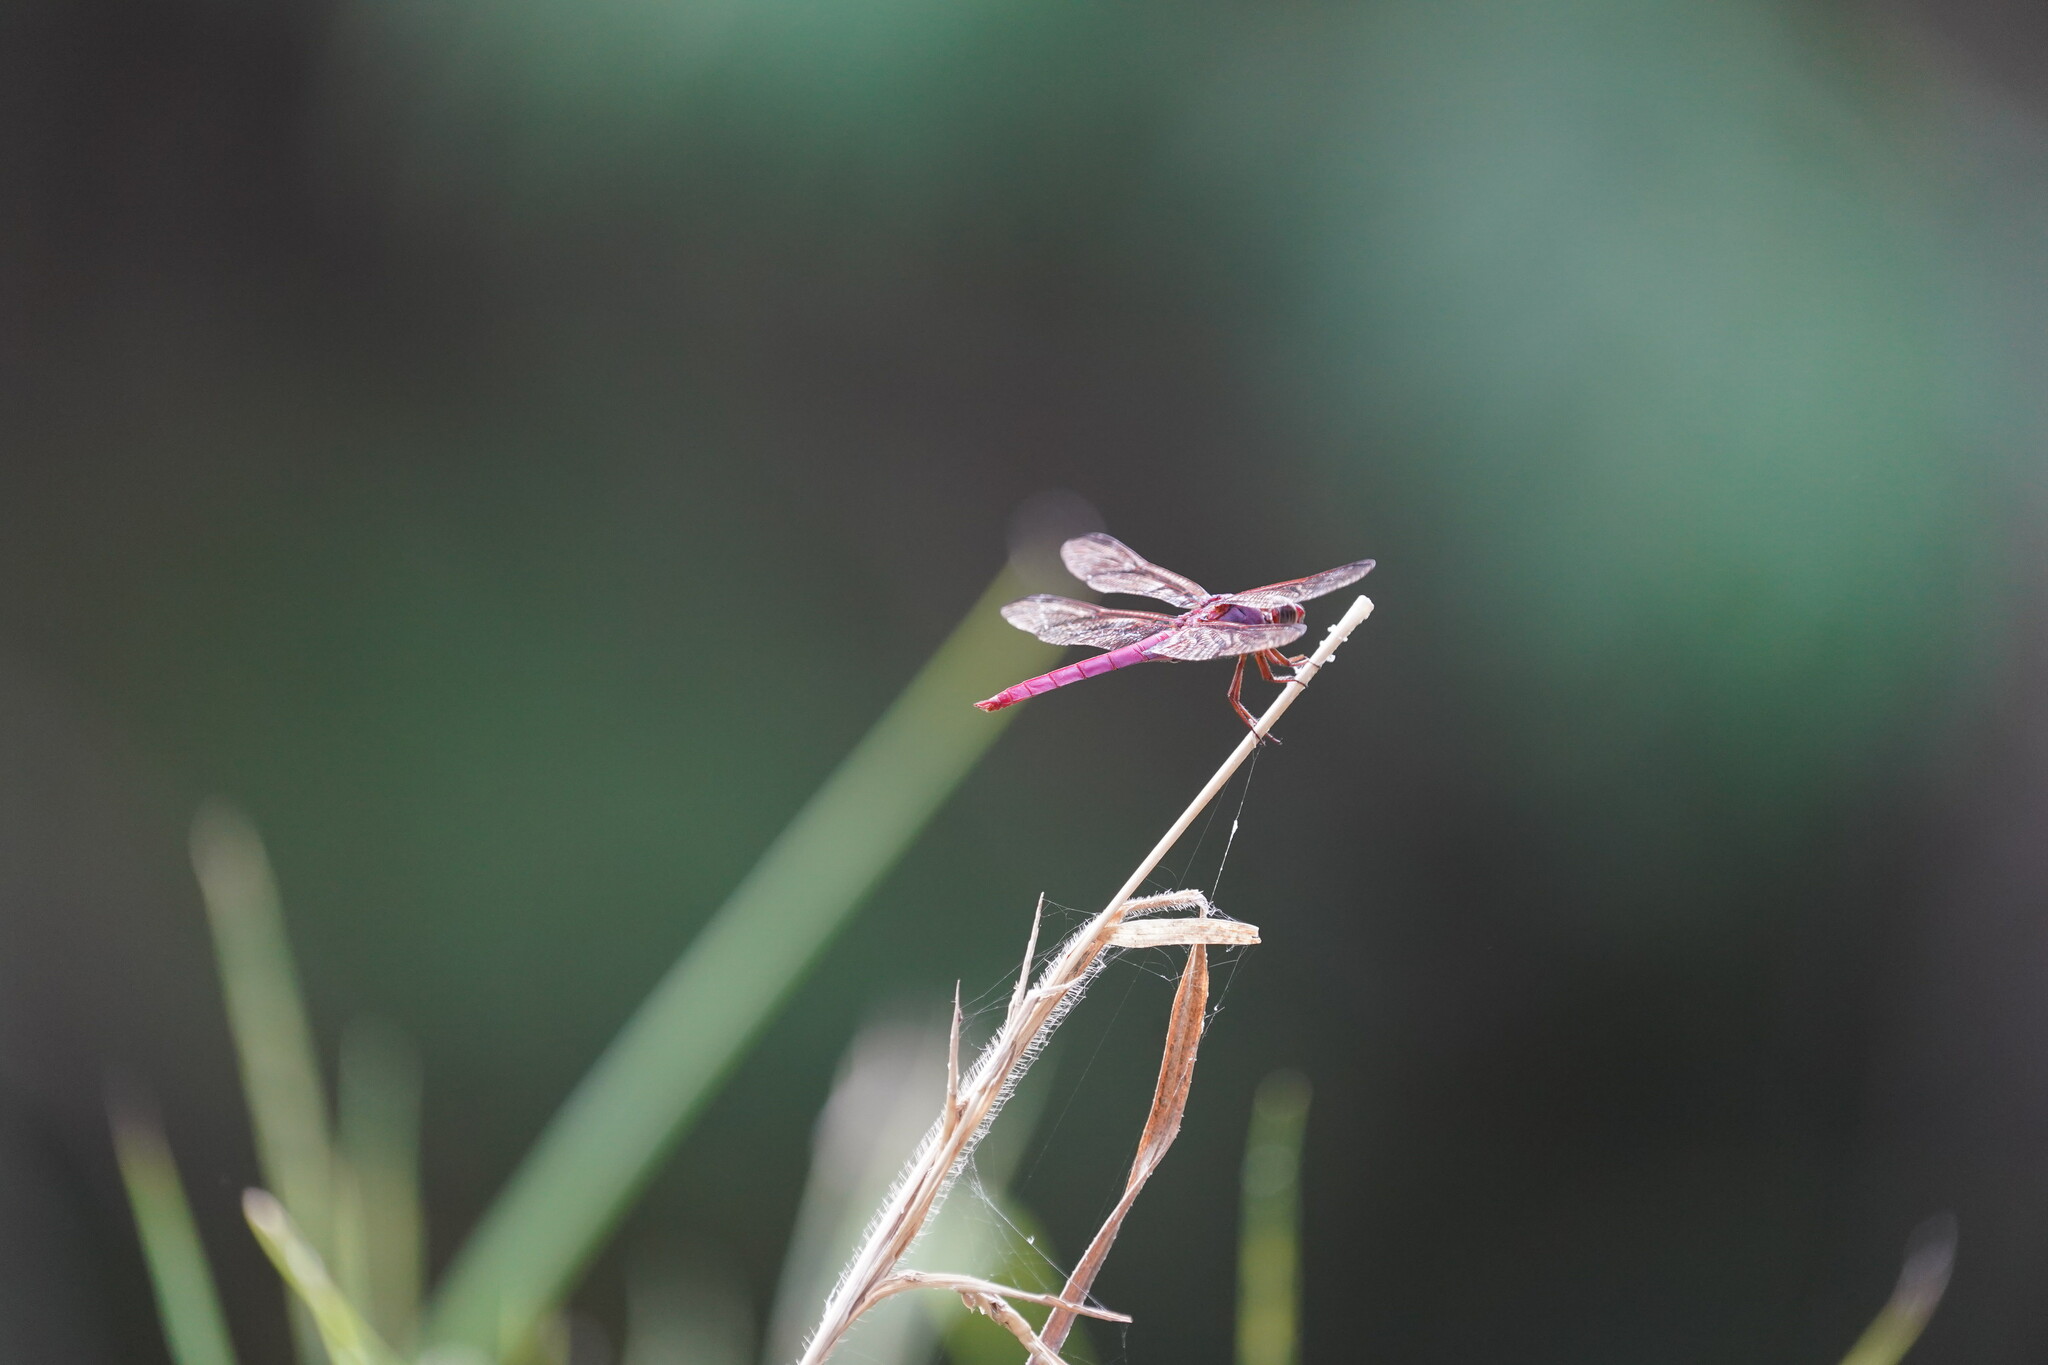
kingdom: Animalia
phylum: Arthropoda
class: Insecta
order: Odonata
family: Libellulidae
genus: Orthemis
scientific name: Orthemis ferruginea
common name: Roseate skimmer
